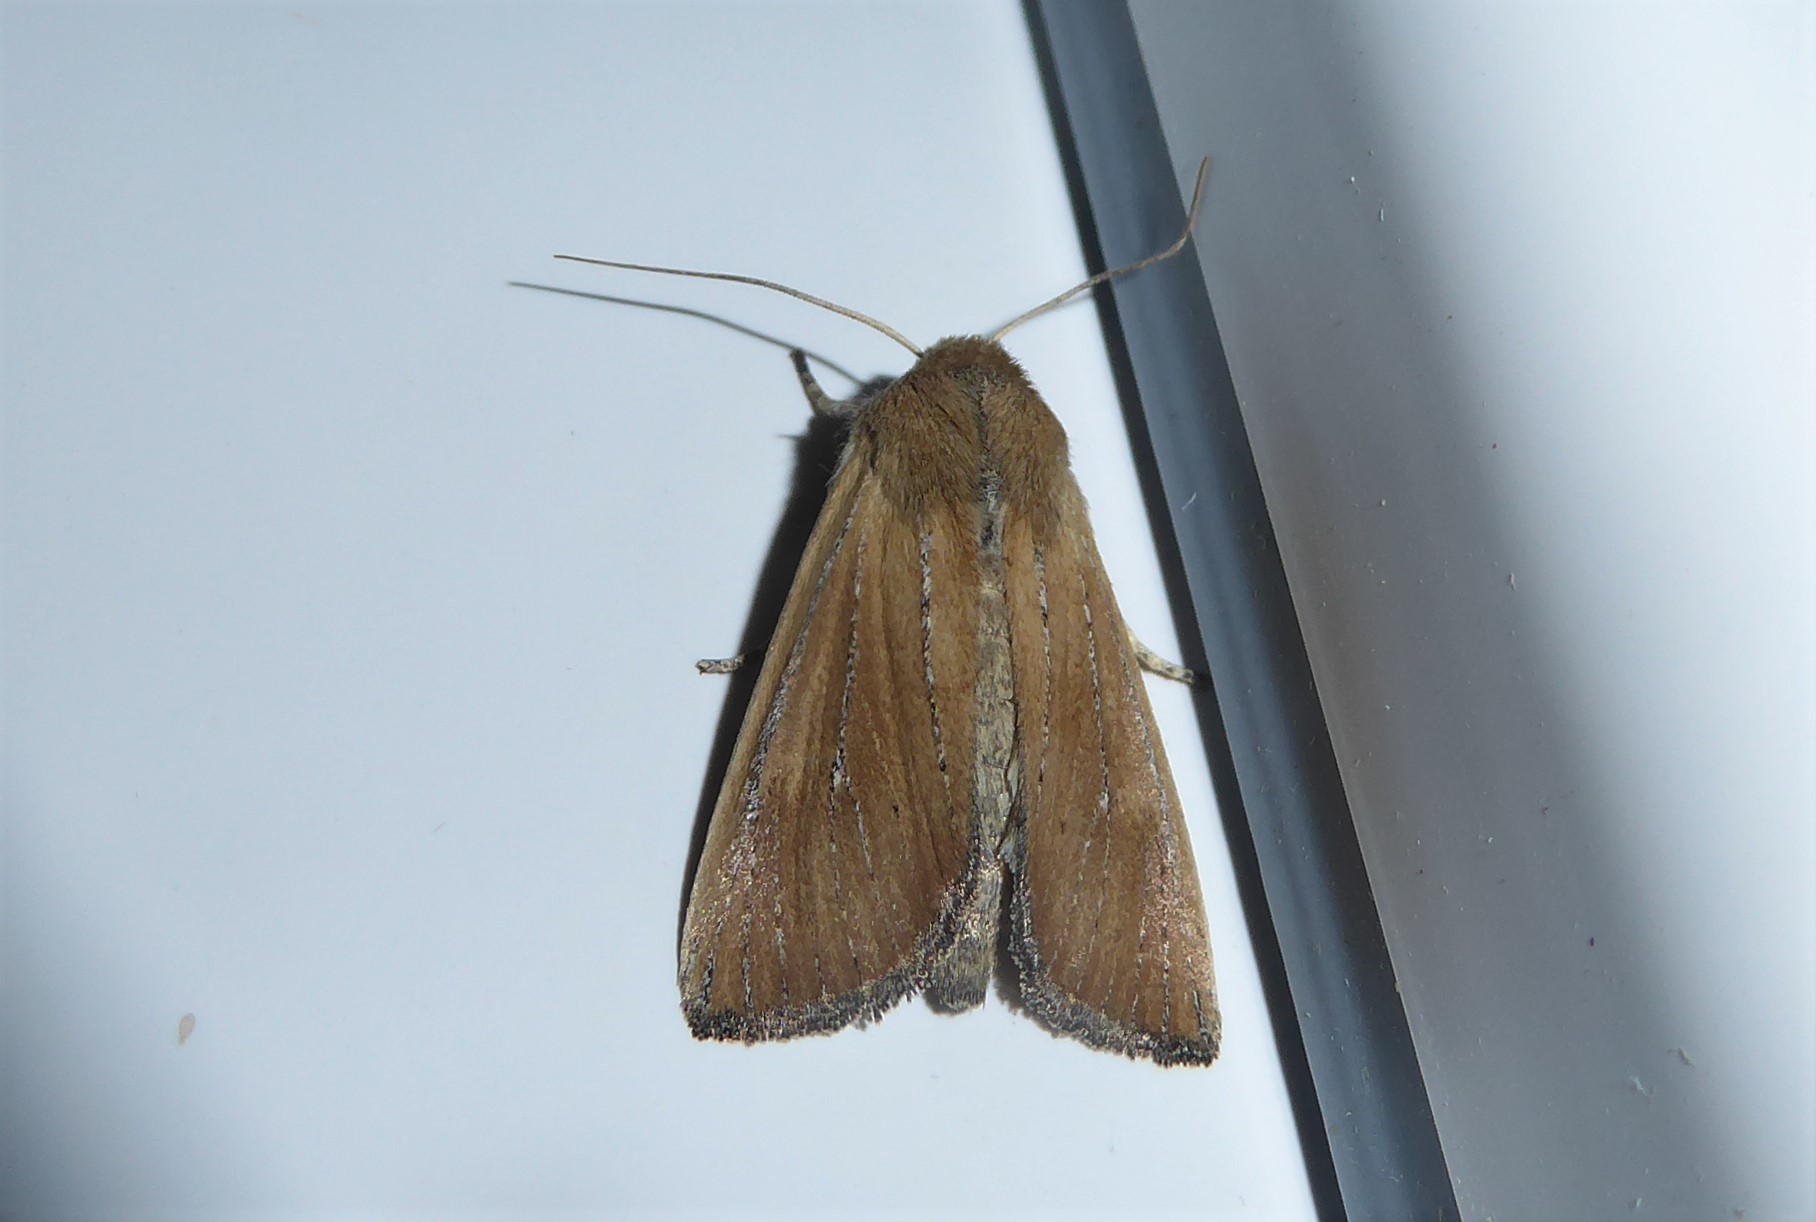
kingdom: Animalia
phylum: Arthropoda
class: Insecta
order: Lepidoptera
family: Noctuidae
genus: Ichneutica
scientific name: Ichneutica blenheimensis
